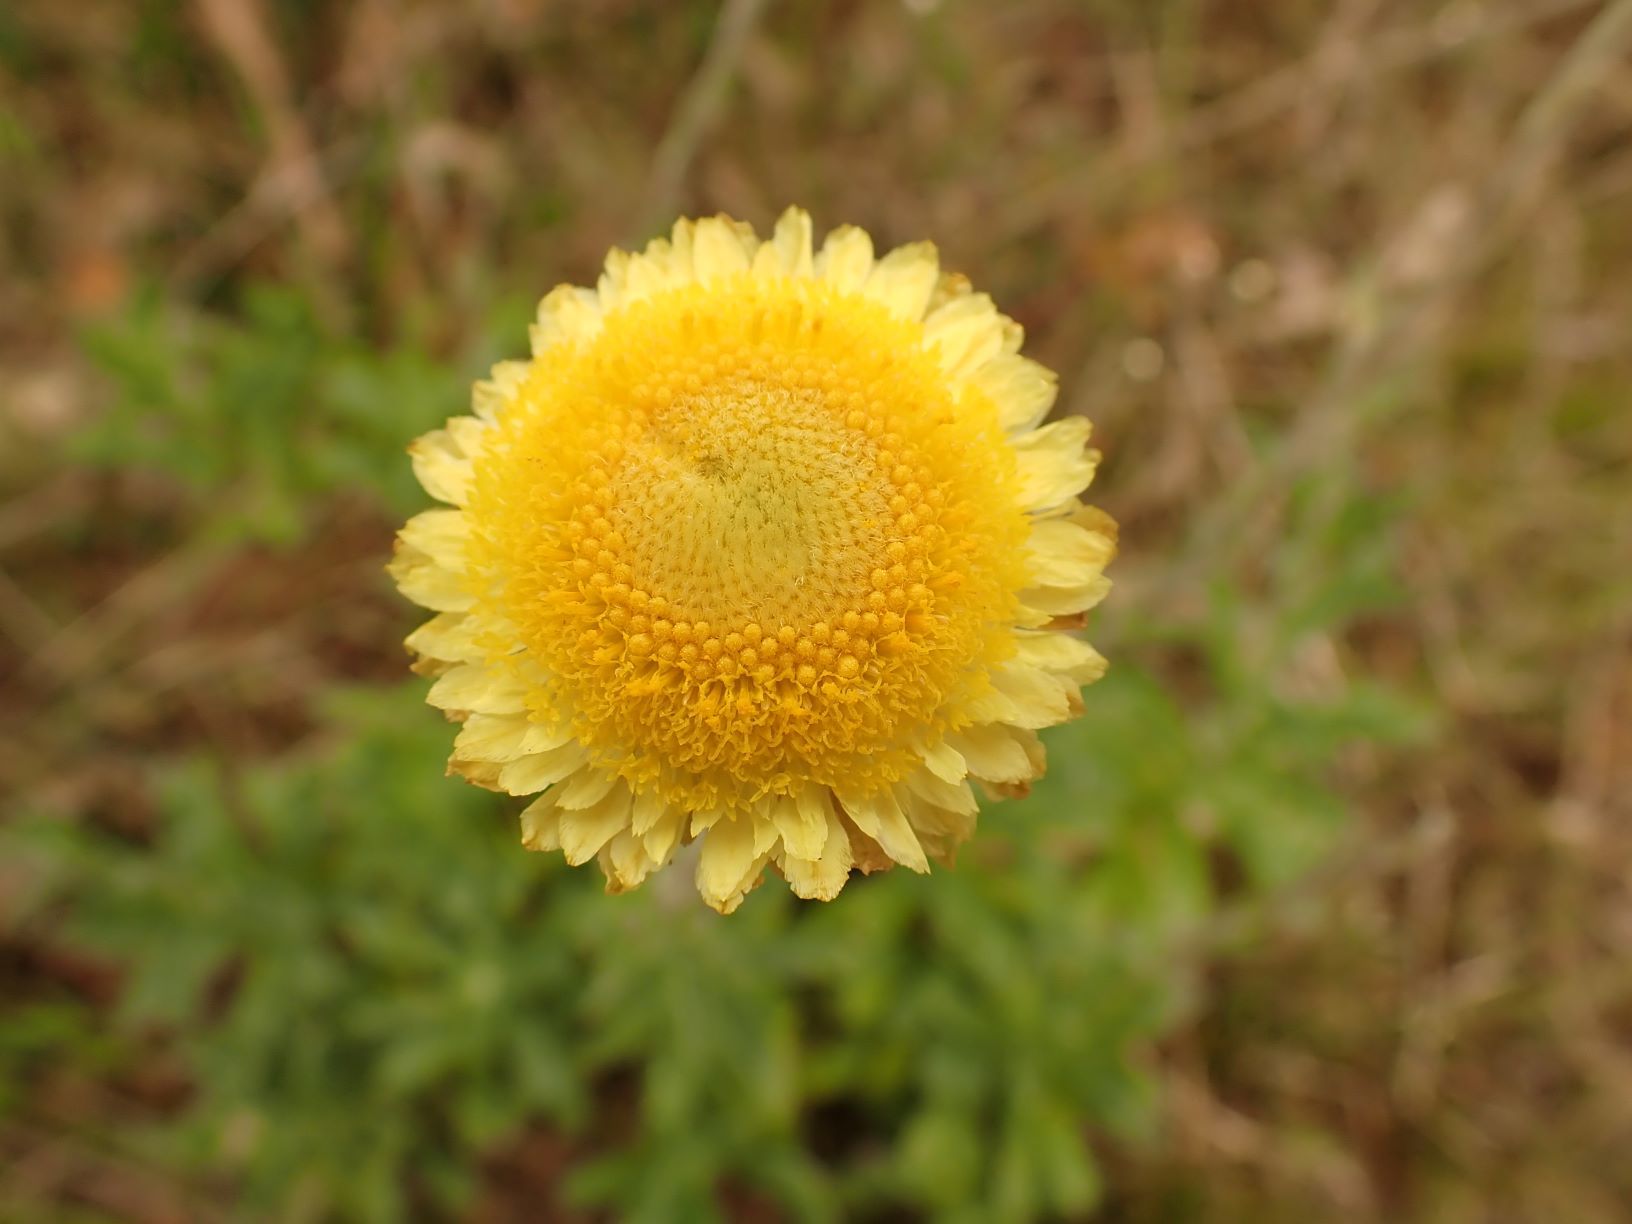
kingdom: Plantae
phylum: Tracheophyta
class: Magnoliopsida
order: Asterales
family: Asteraceae
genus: Coronidium
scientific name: Coronidium scorpioides
